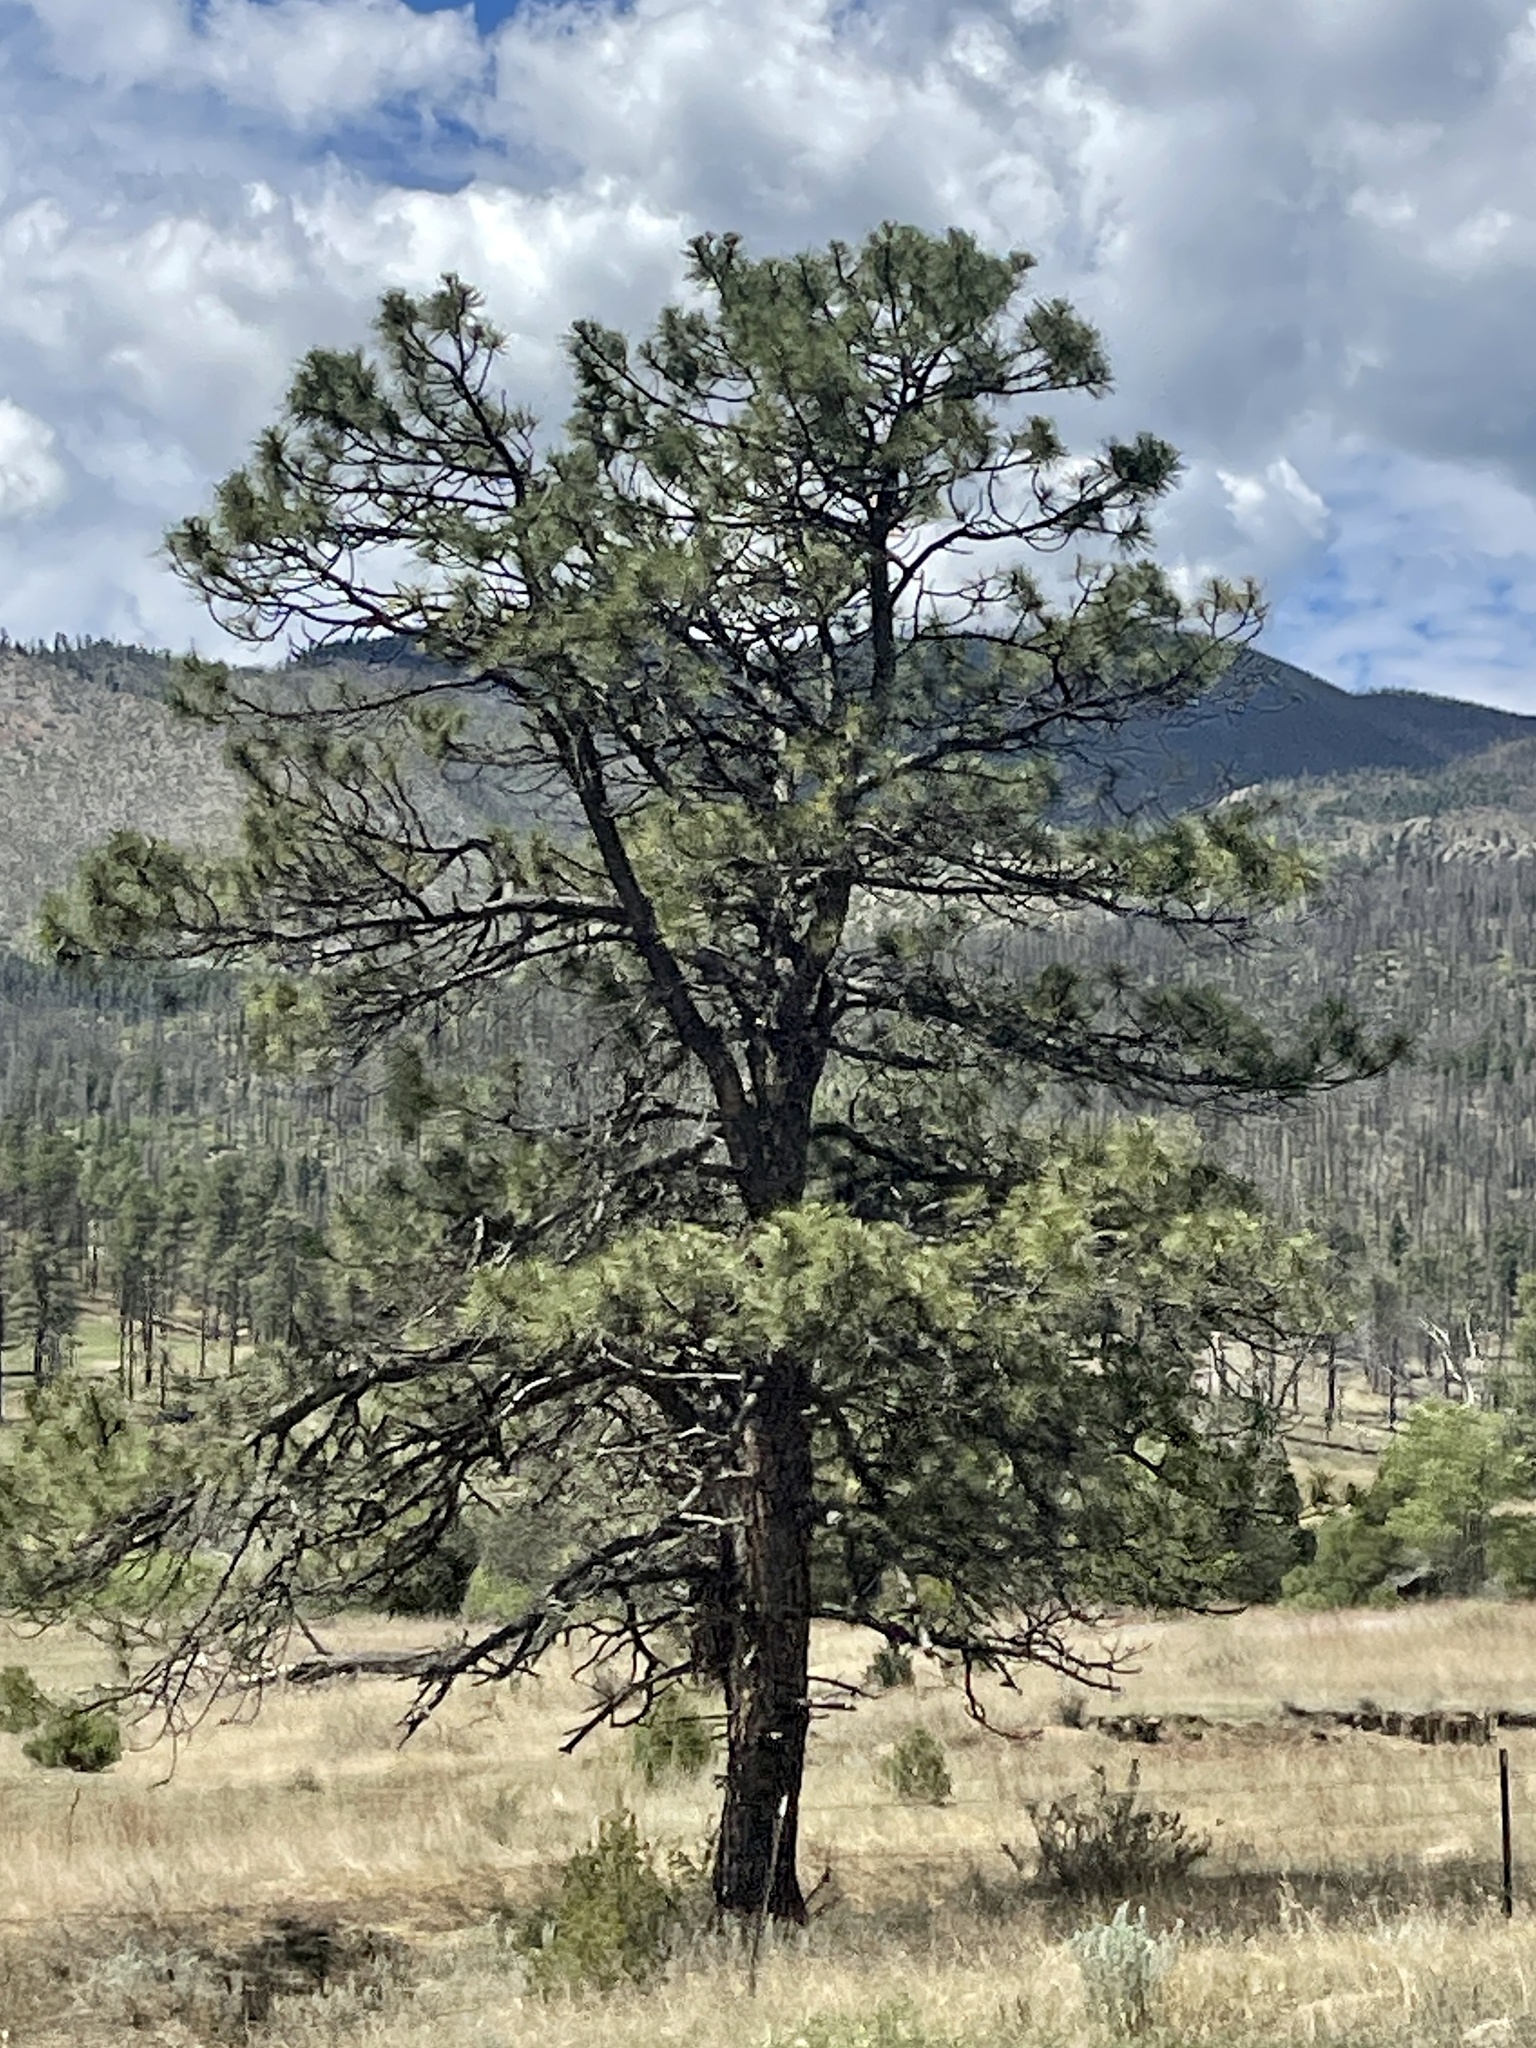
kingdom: Plantae
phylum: Tracheophyta
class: Pinopsida
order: Pinales
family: Pinaceae
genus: Pinus
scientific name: Pinus ponderosa
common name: Western yellow-pine
